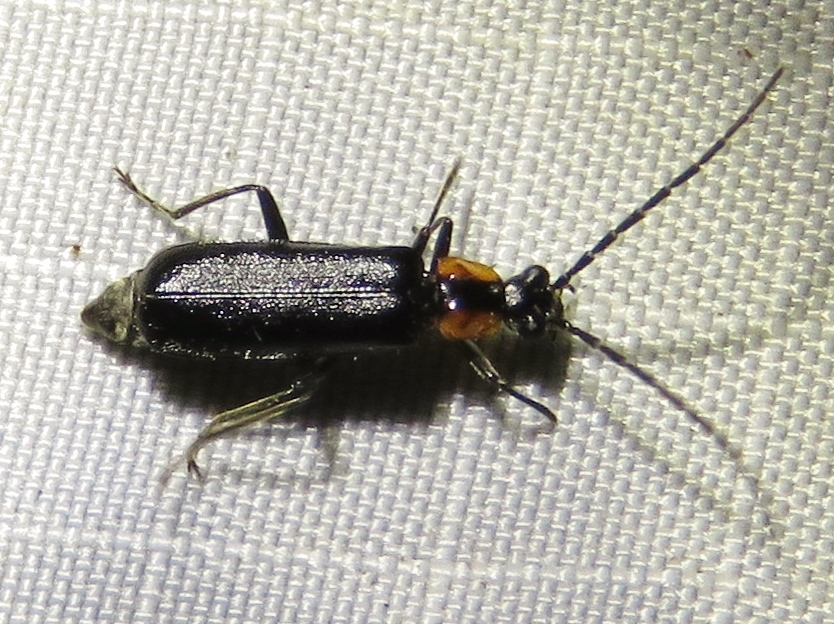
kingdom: Animalia
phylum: Arthropoda
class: Insecta
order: Coleoptera
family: Cantharidae
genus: Rhagonycha
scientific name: Rhagonycha lineola
